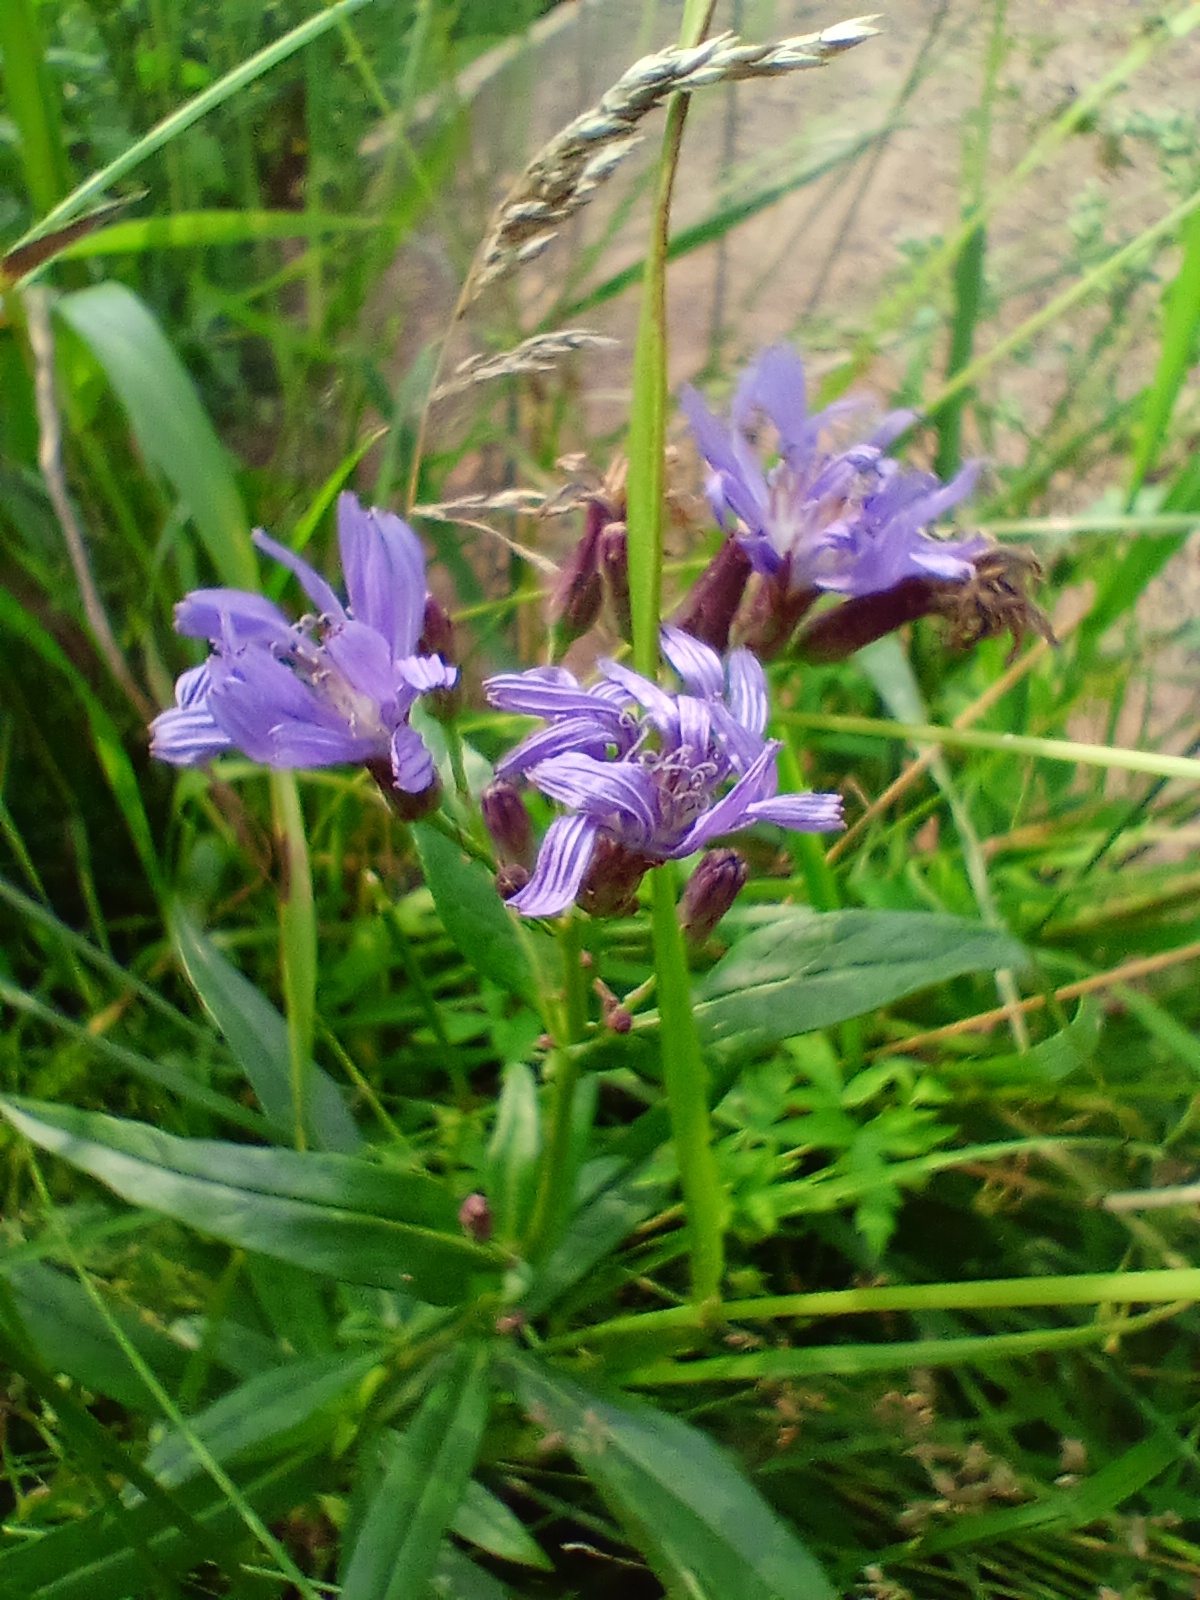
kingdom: Plantae
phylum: Tracheophyta
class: Magnoliopsida
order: Asterales
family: Asteraceae
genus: Lactuca
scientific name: Lactuca sibirica
